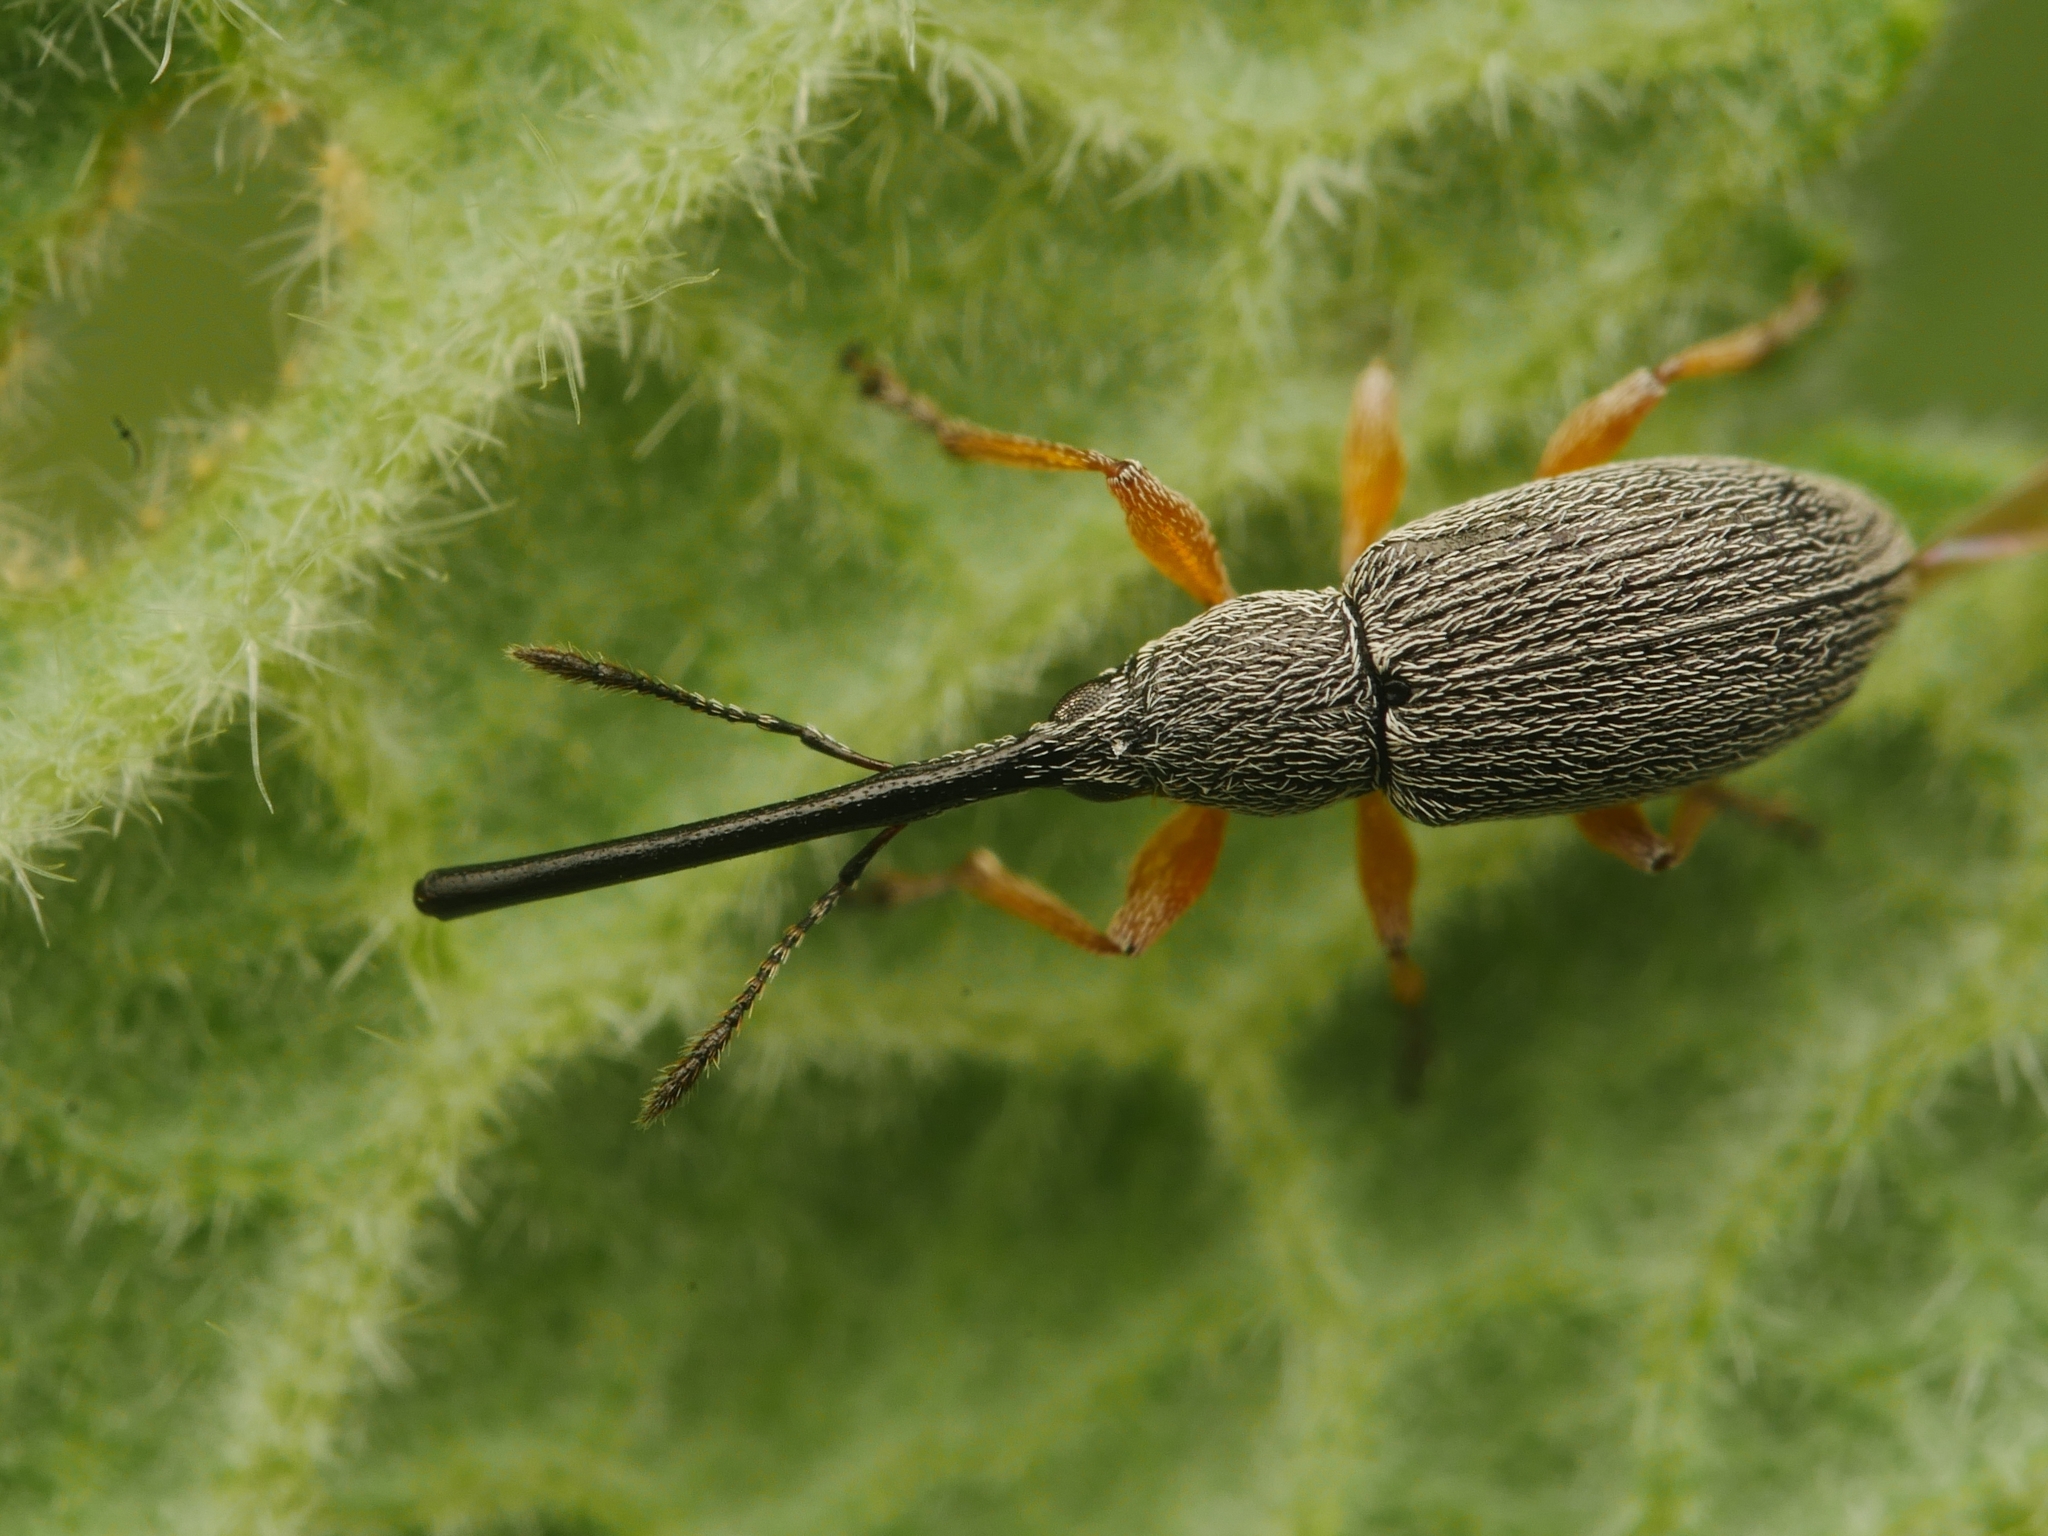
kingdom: Animalia
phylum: Arthropoda
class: Insecta
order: Coleoptera
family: Brentidae
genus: Rhopalapion
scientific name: Rhopalapion longirostre
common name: Hollyhock weevil
